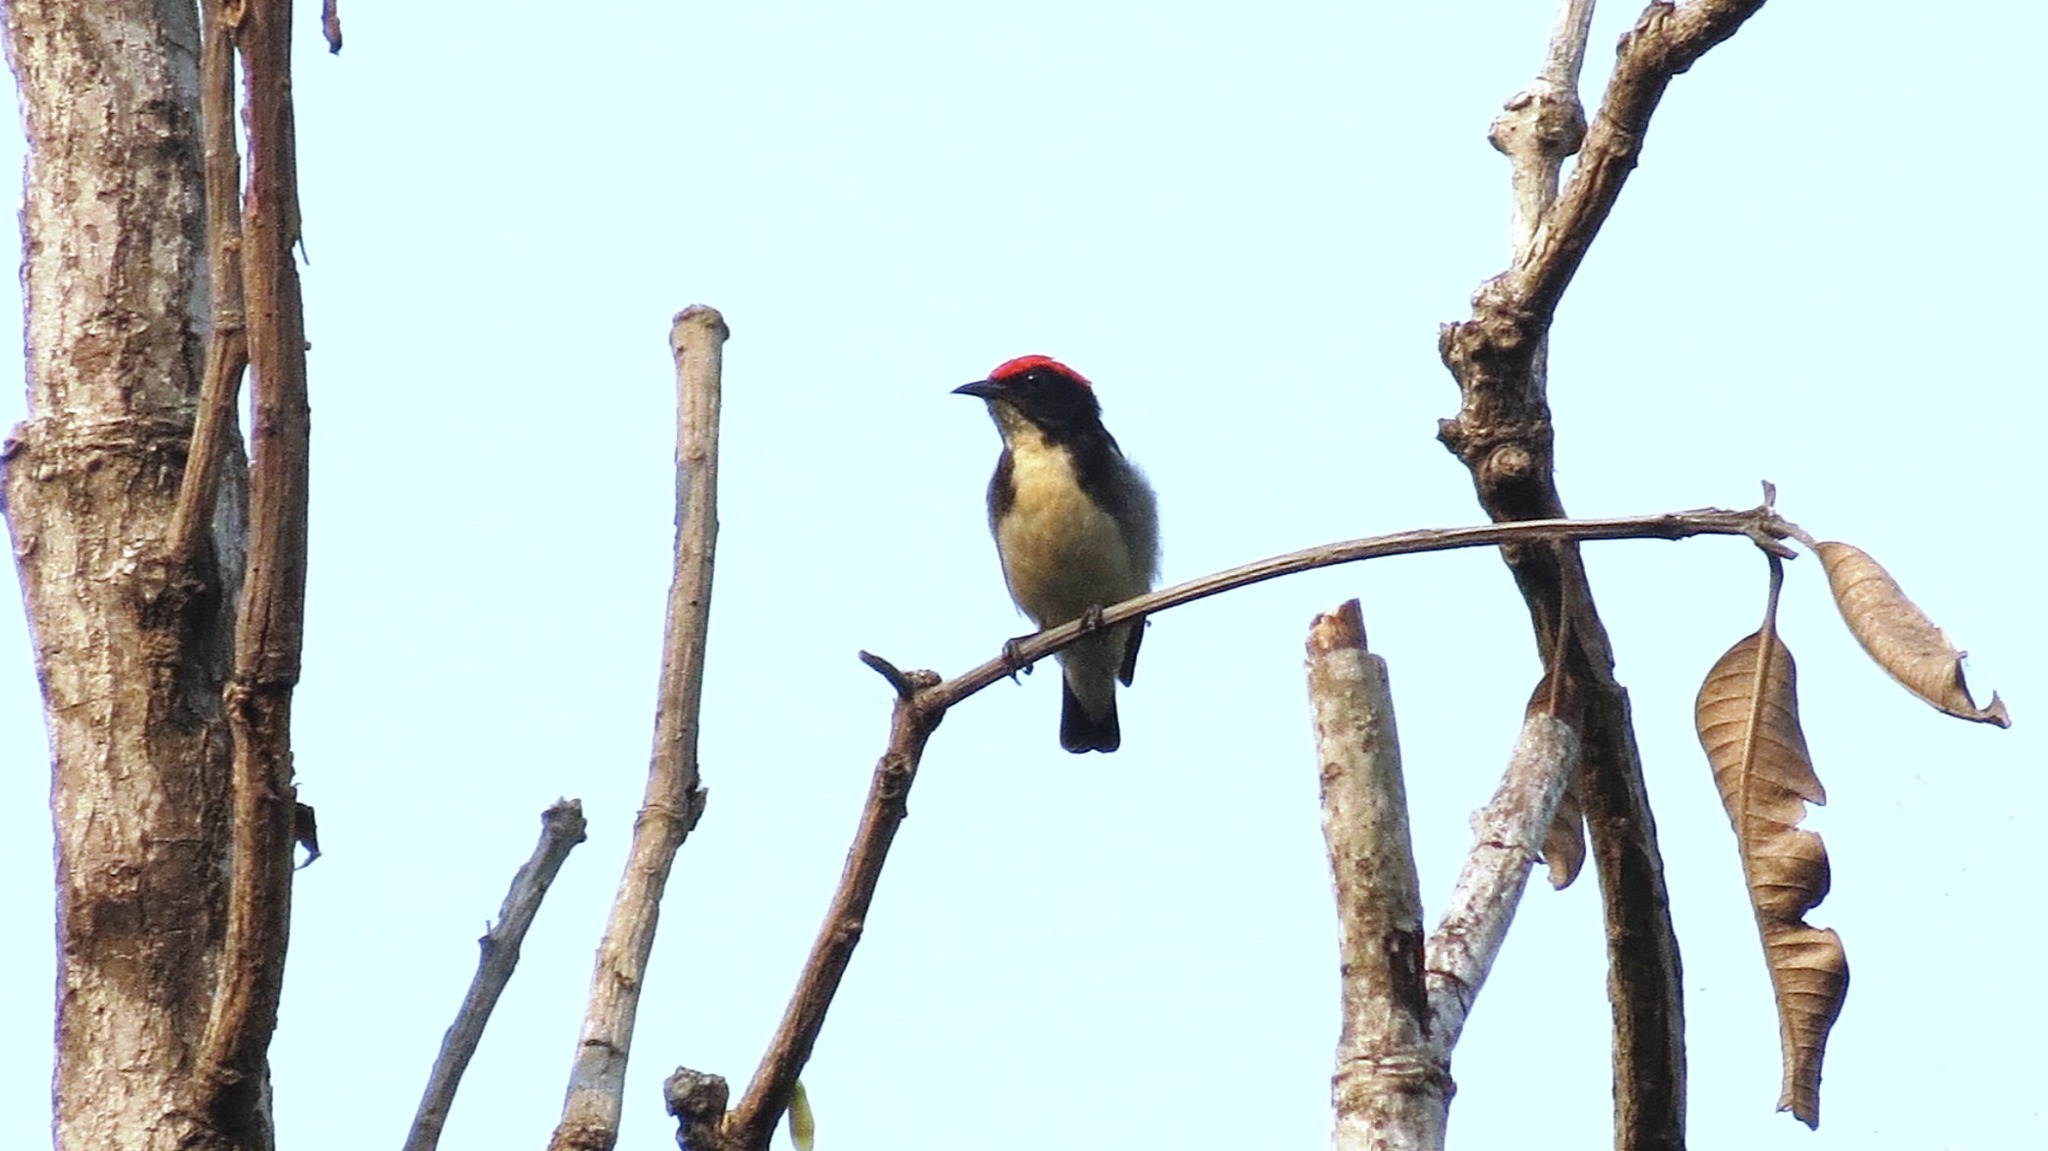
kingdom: Animalia
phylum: Chordata
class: Aves
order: Passeriformes
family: Dicaeidae
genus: Dicaeum
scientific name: Dicaeum cruentatum
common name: Scarlet-backed flowerpecker
